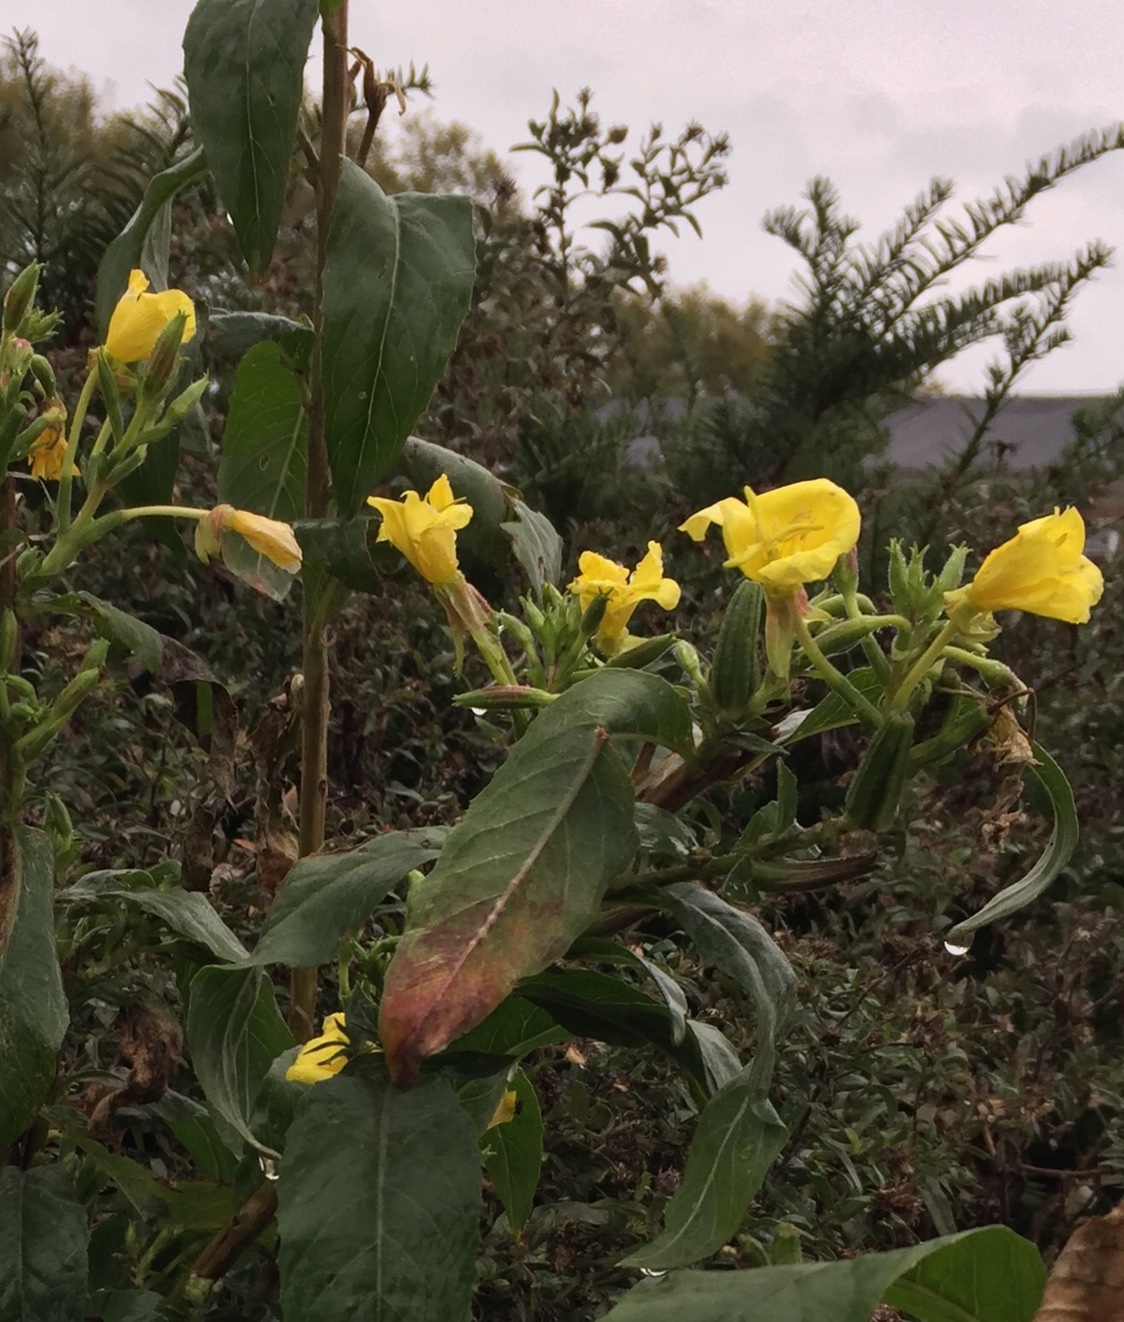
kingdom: Plantae
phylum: Tracheophyta
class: Magnoliopsida
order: Myrtales
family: Onagraceae
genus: Oenothera
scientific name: Oenothera biennis
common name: Common evening-primrose
